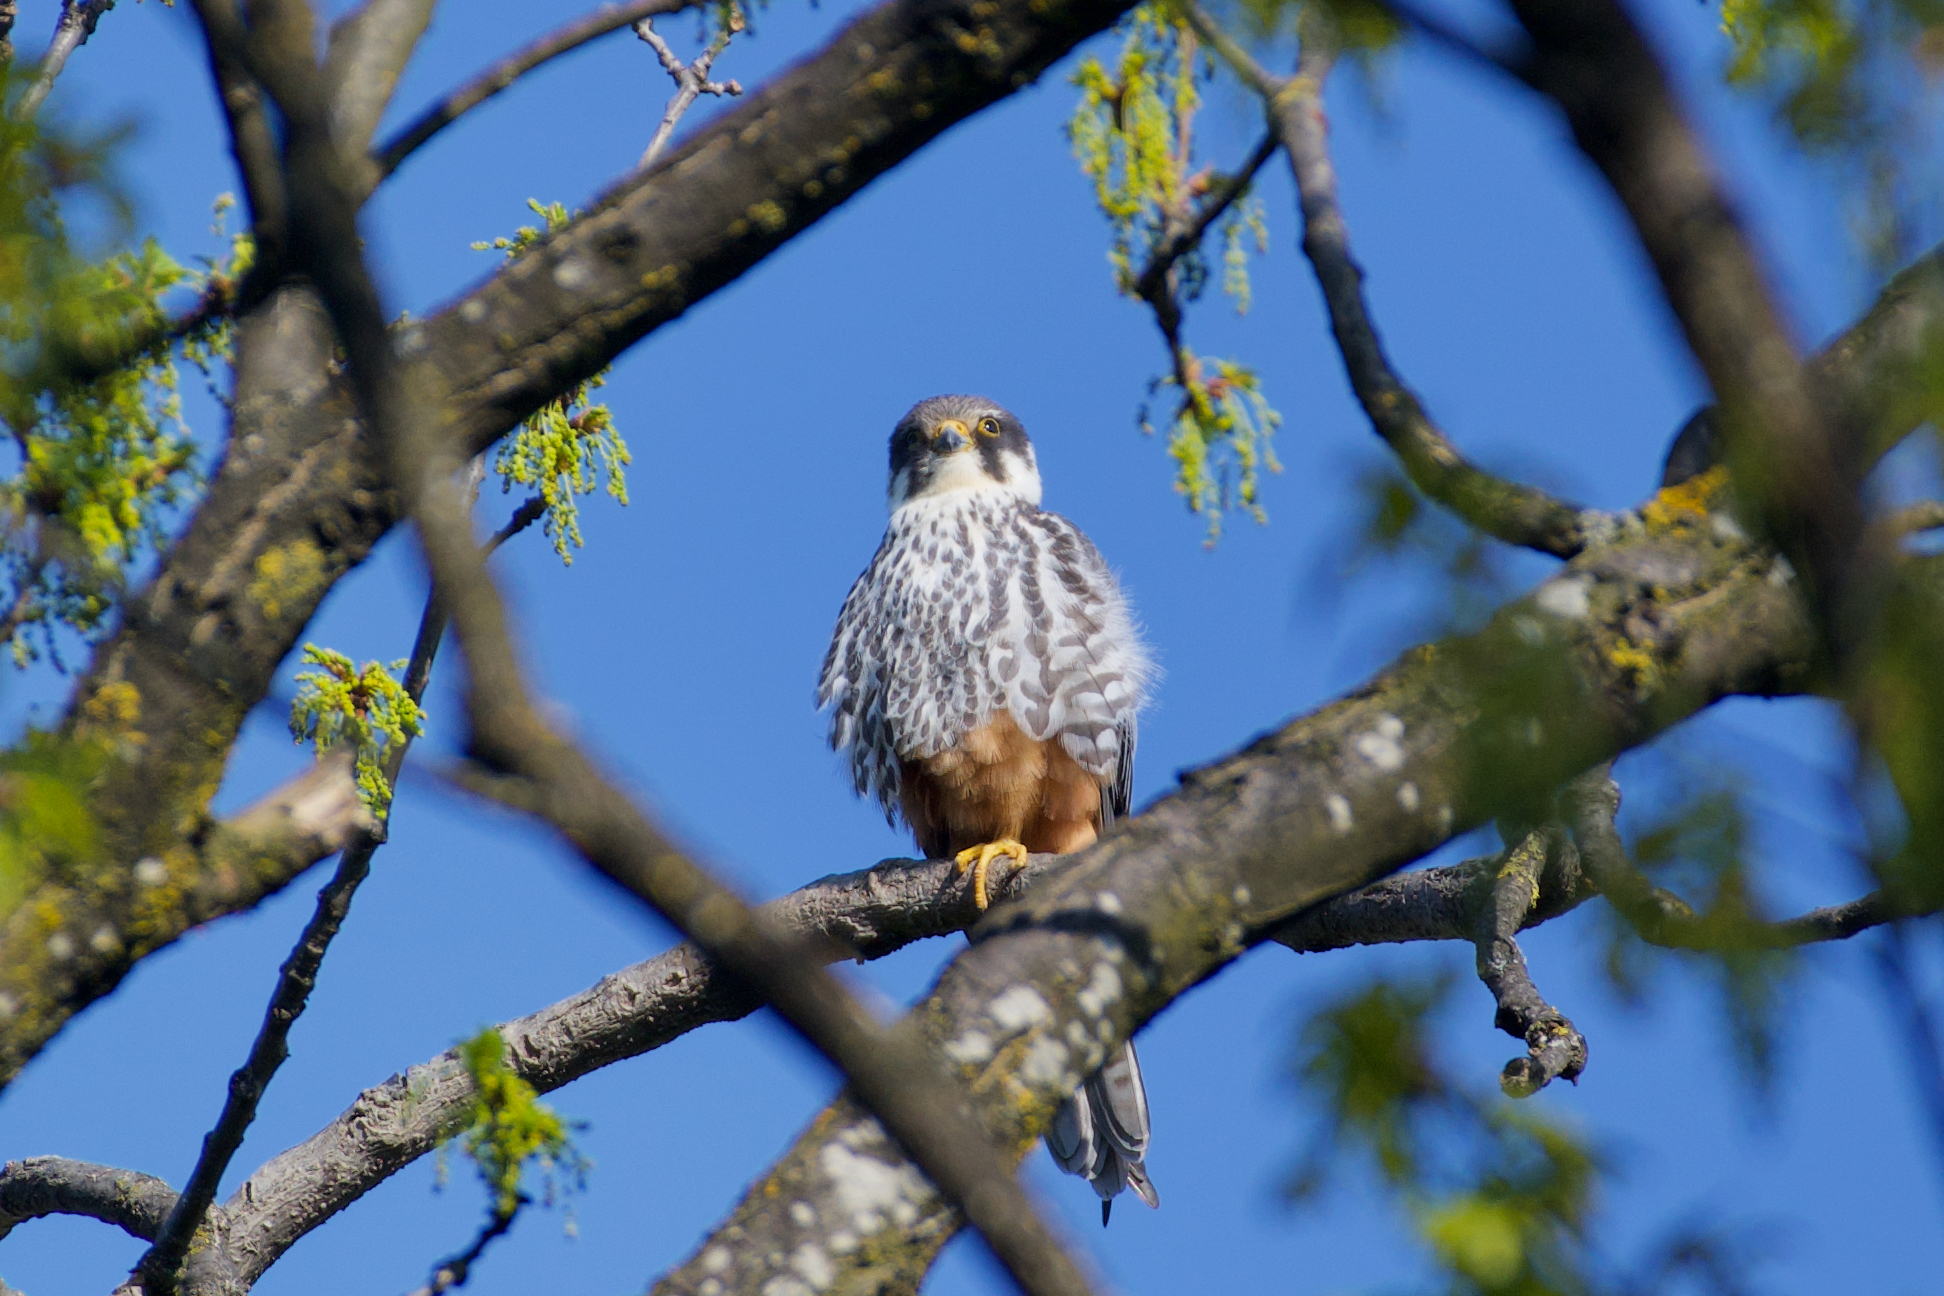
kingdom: Animalia
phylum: Chordata
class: Aves
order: Falconiformes
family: Falconidae
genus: Falco
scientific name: Falco subbuteo
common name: Eurasian hobby
